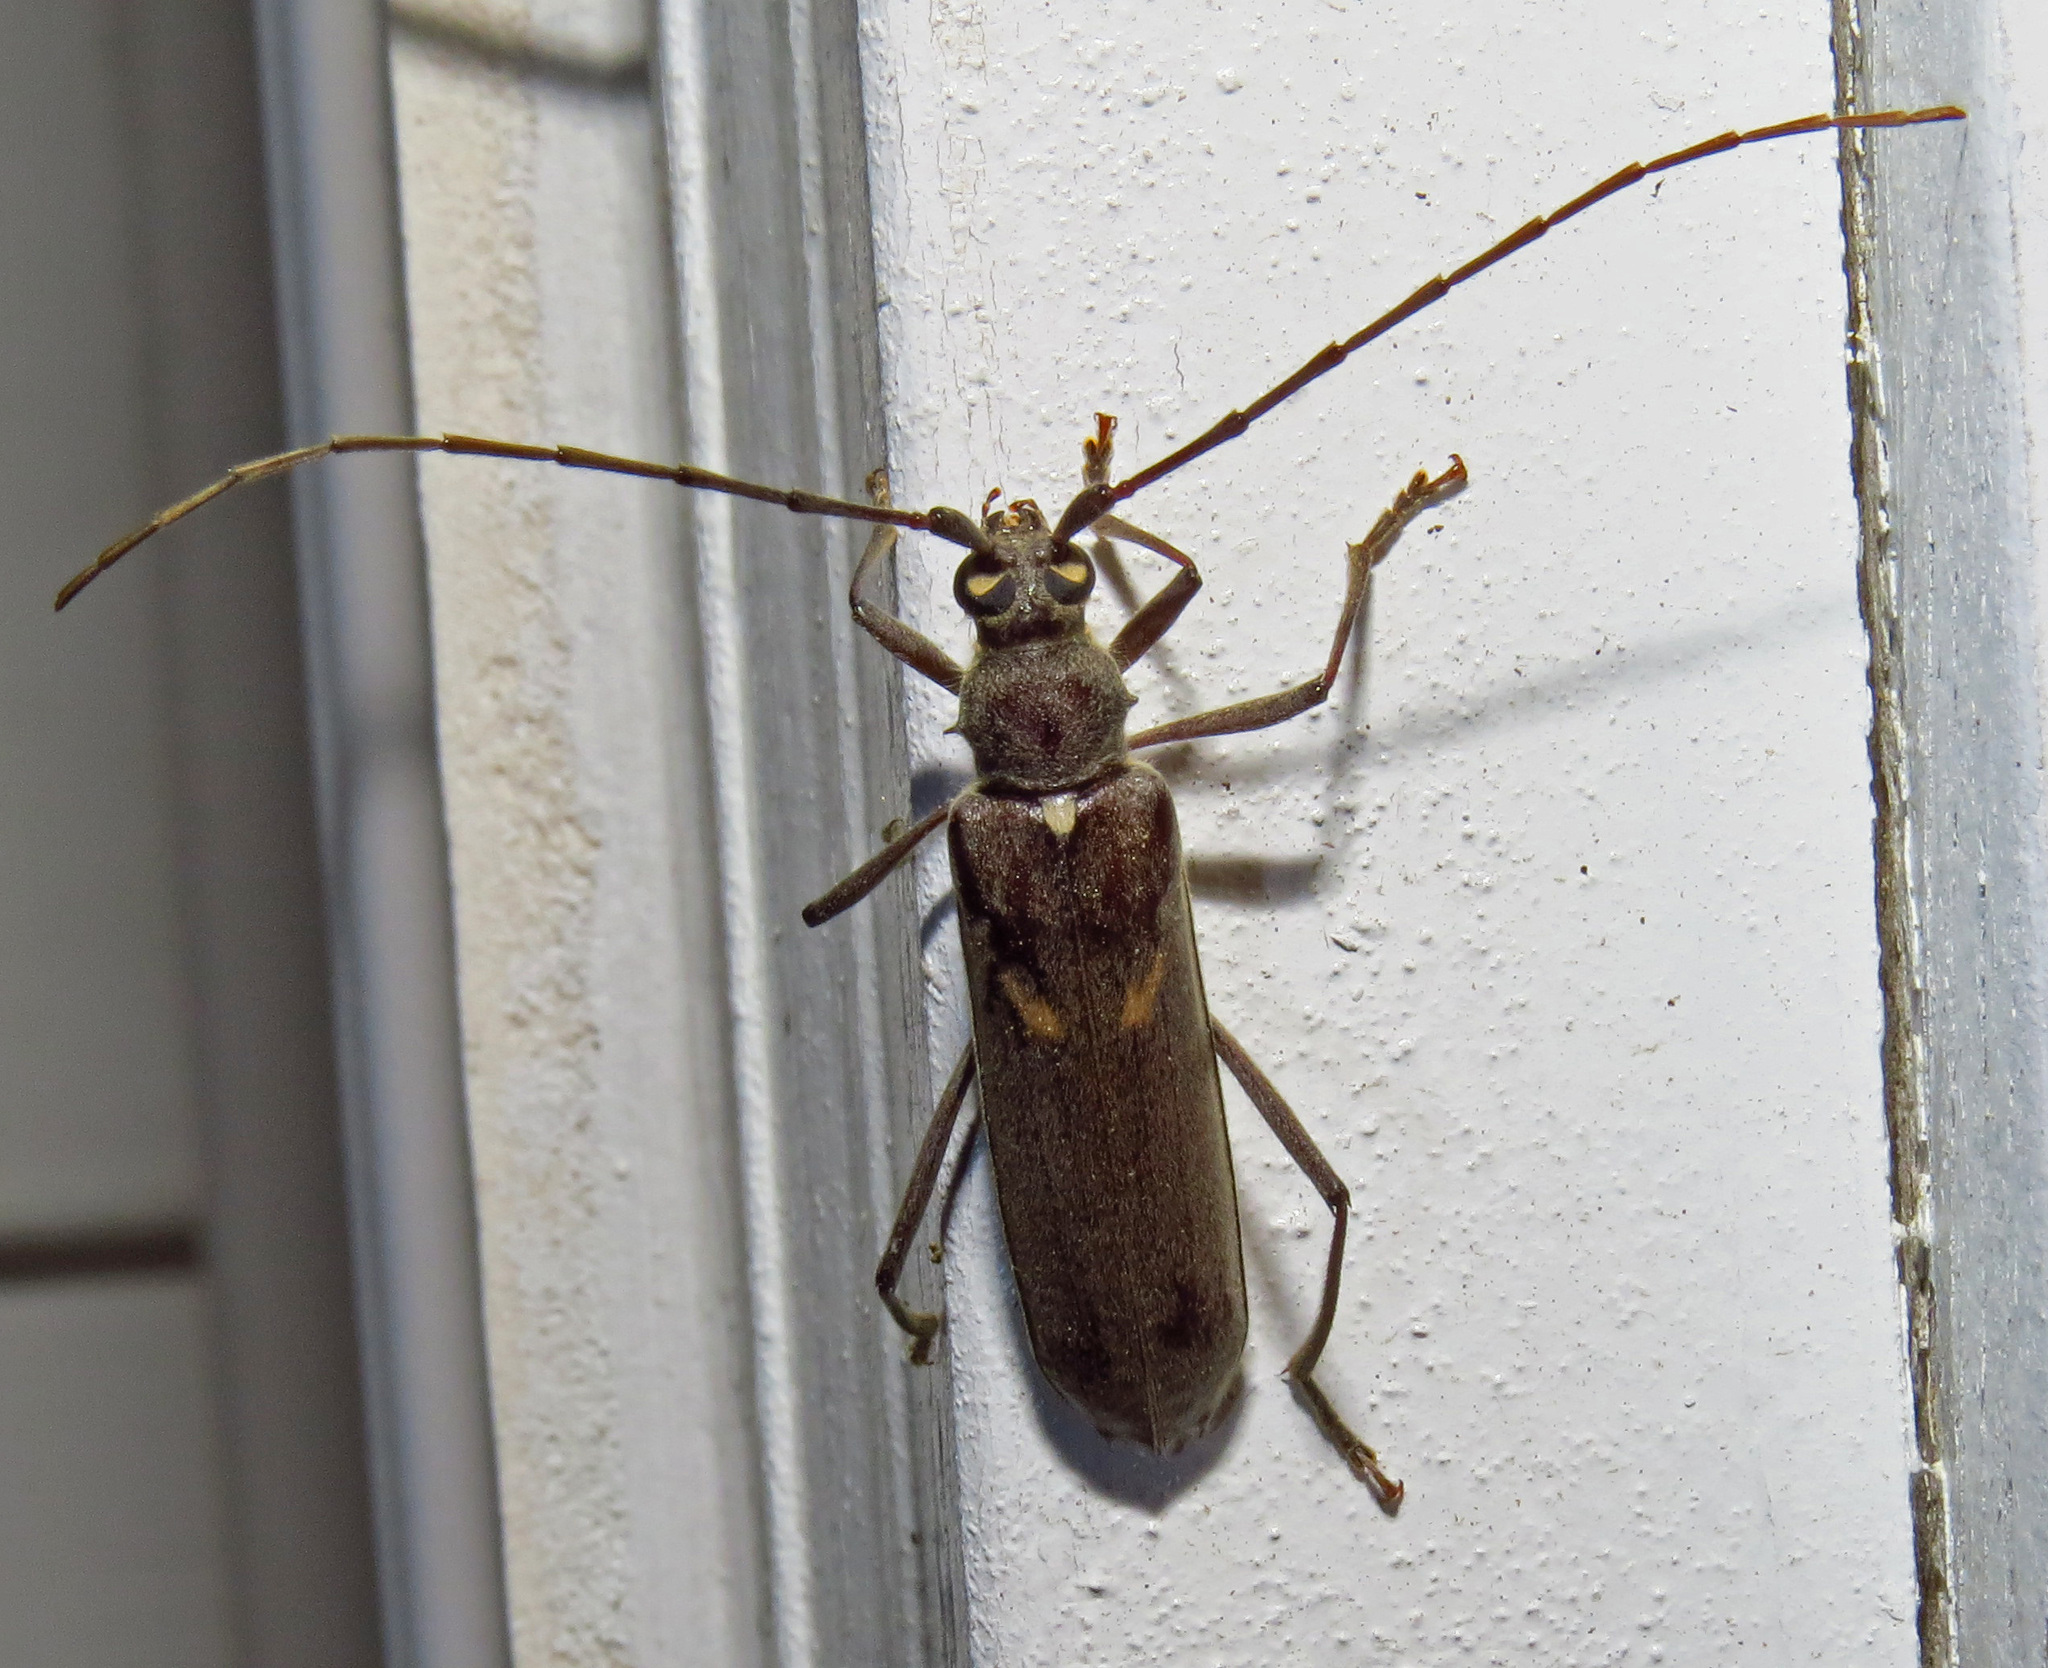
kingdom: Animalia
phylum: Arthropoda
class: Insecta
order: Coleoptera
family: Cerambycidae
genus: Knulliana
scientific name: Knulliana cincta
